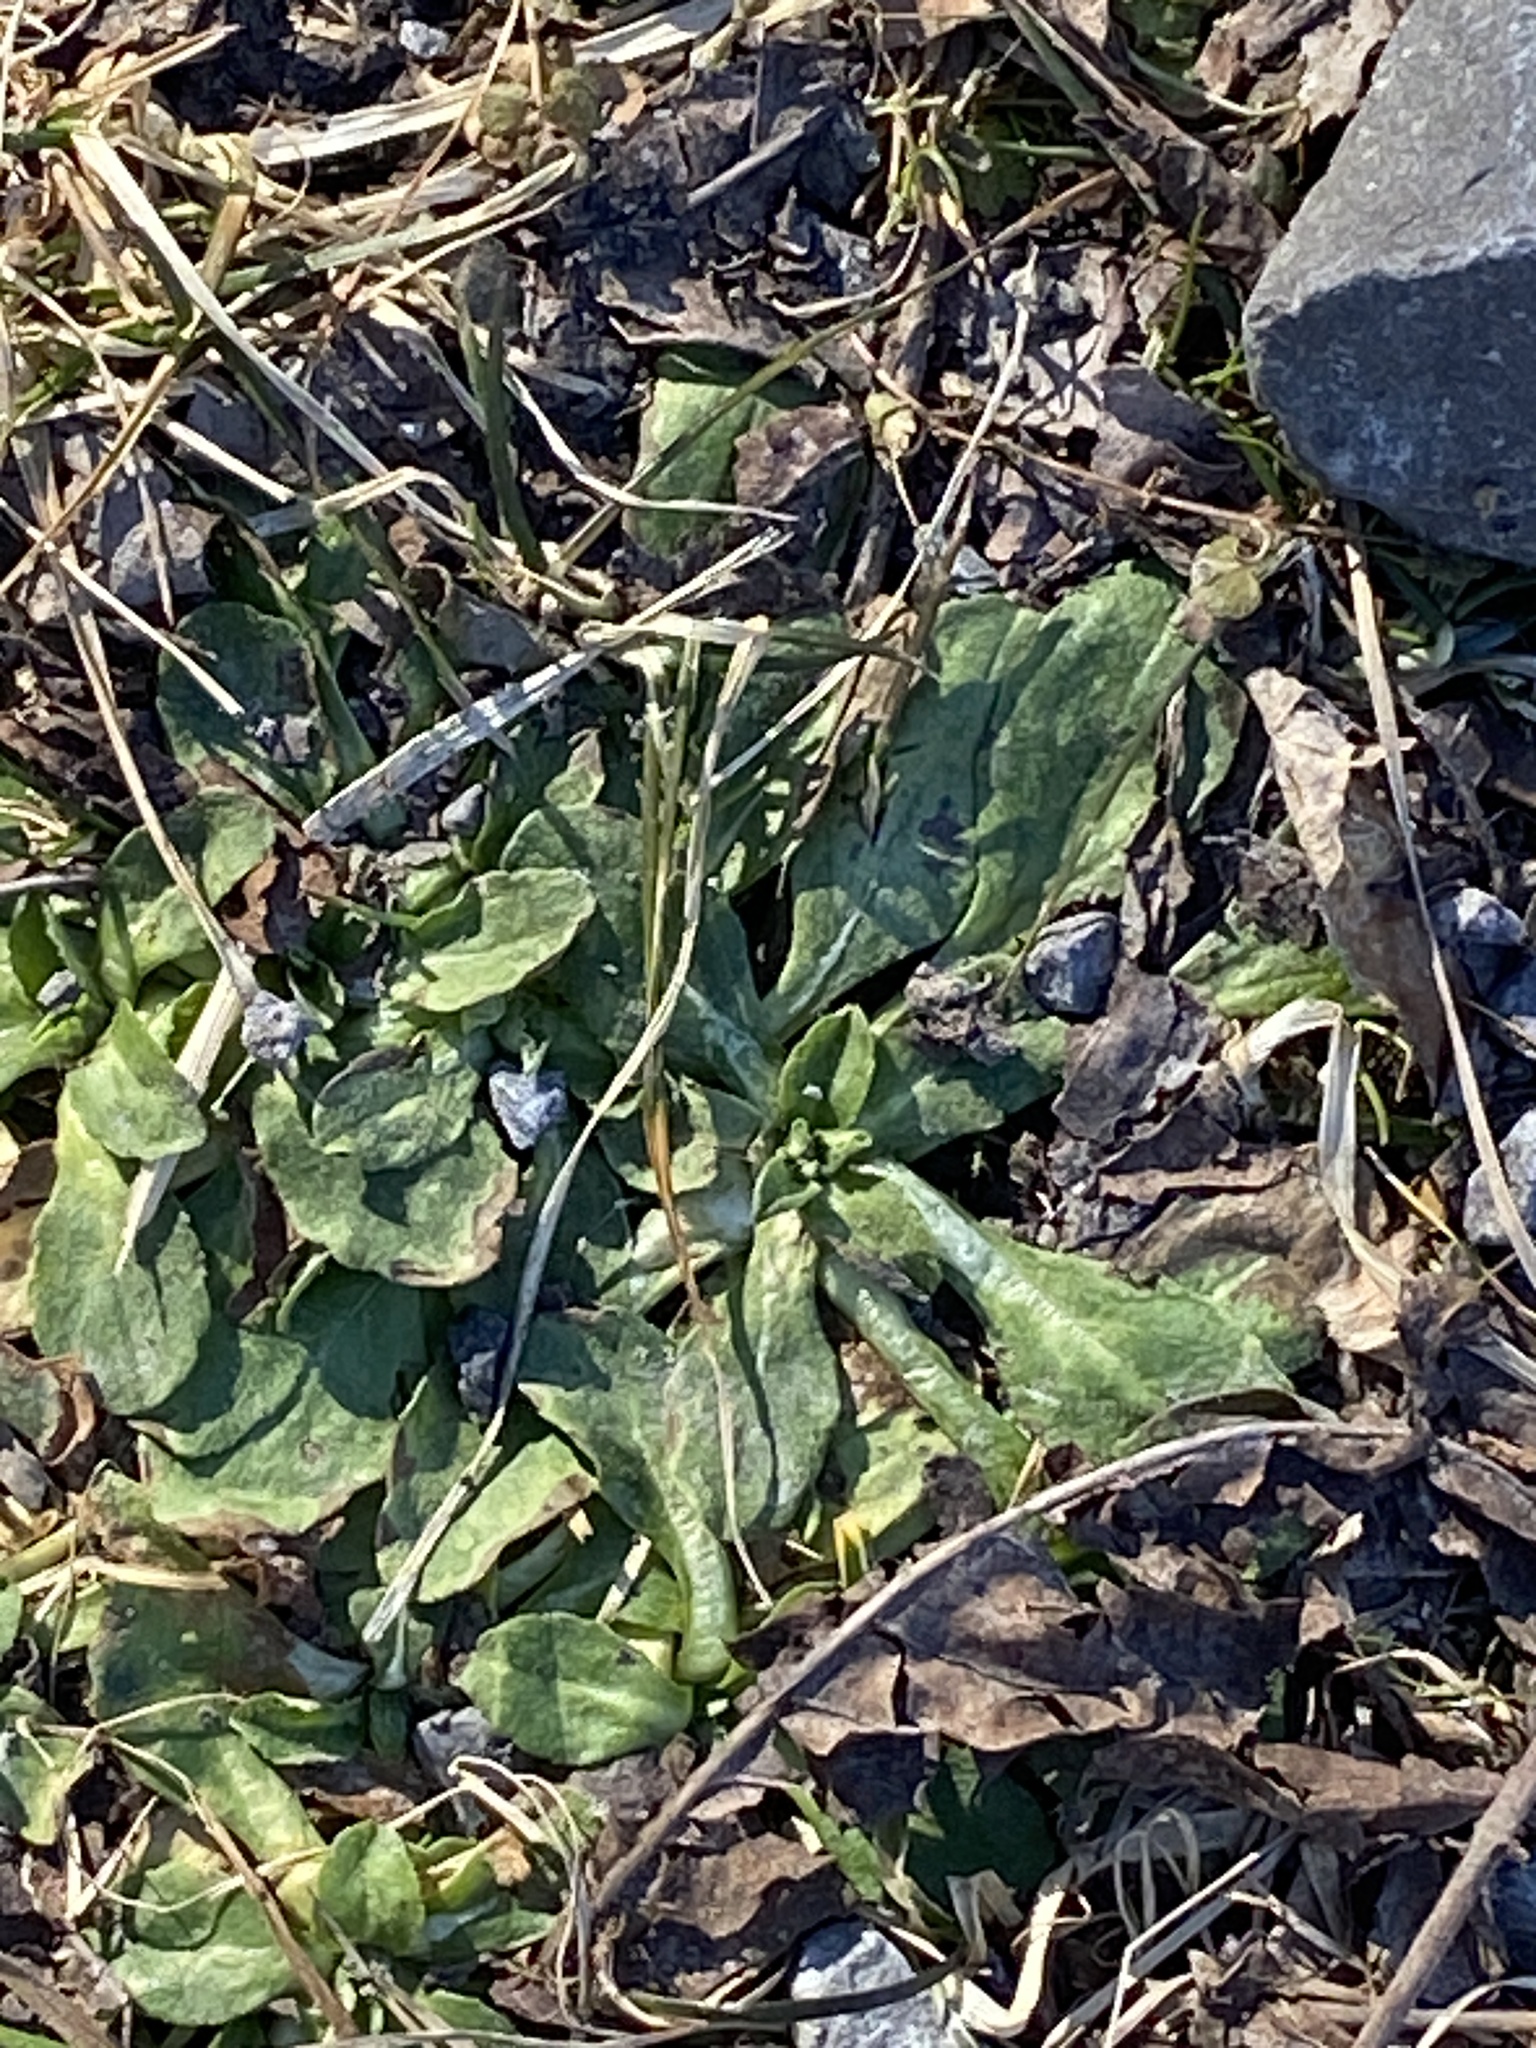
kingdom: Plantae
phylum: Tracheophyta
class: Magnoliopsida
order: Asterales
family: Asteraceae
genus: Bellis
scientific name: Bellis perennis
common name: Lawndaisy
